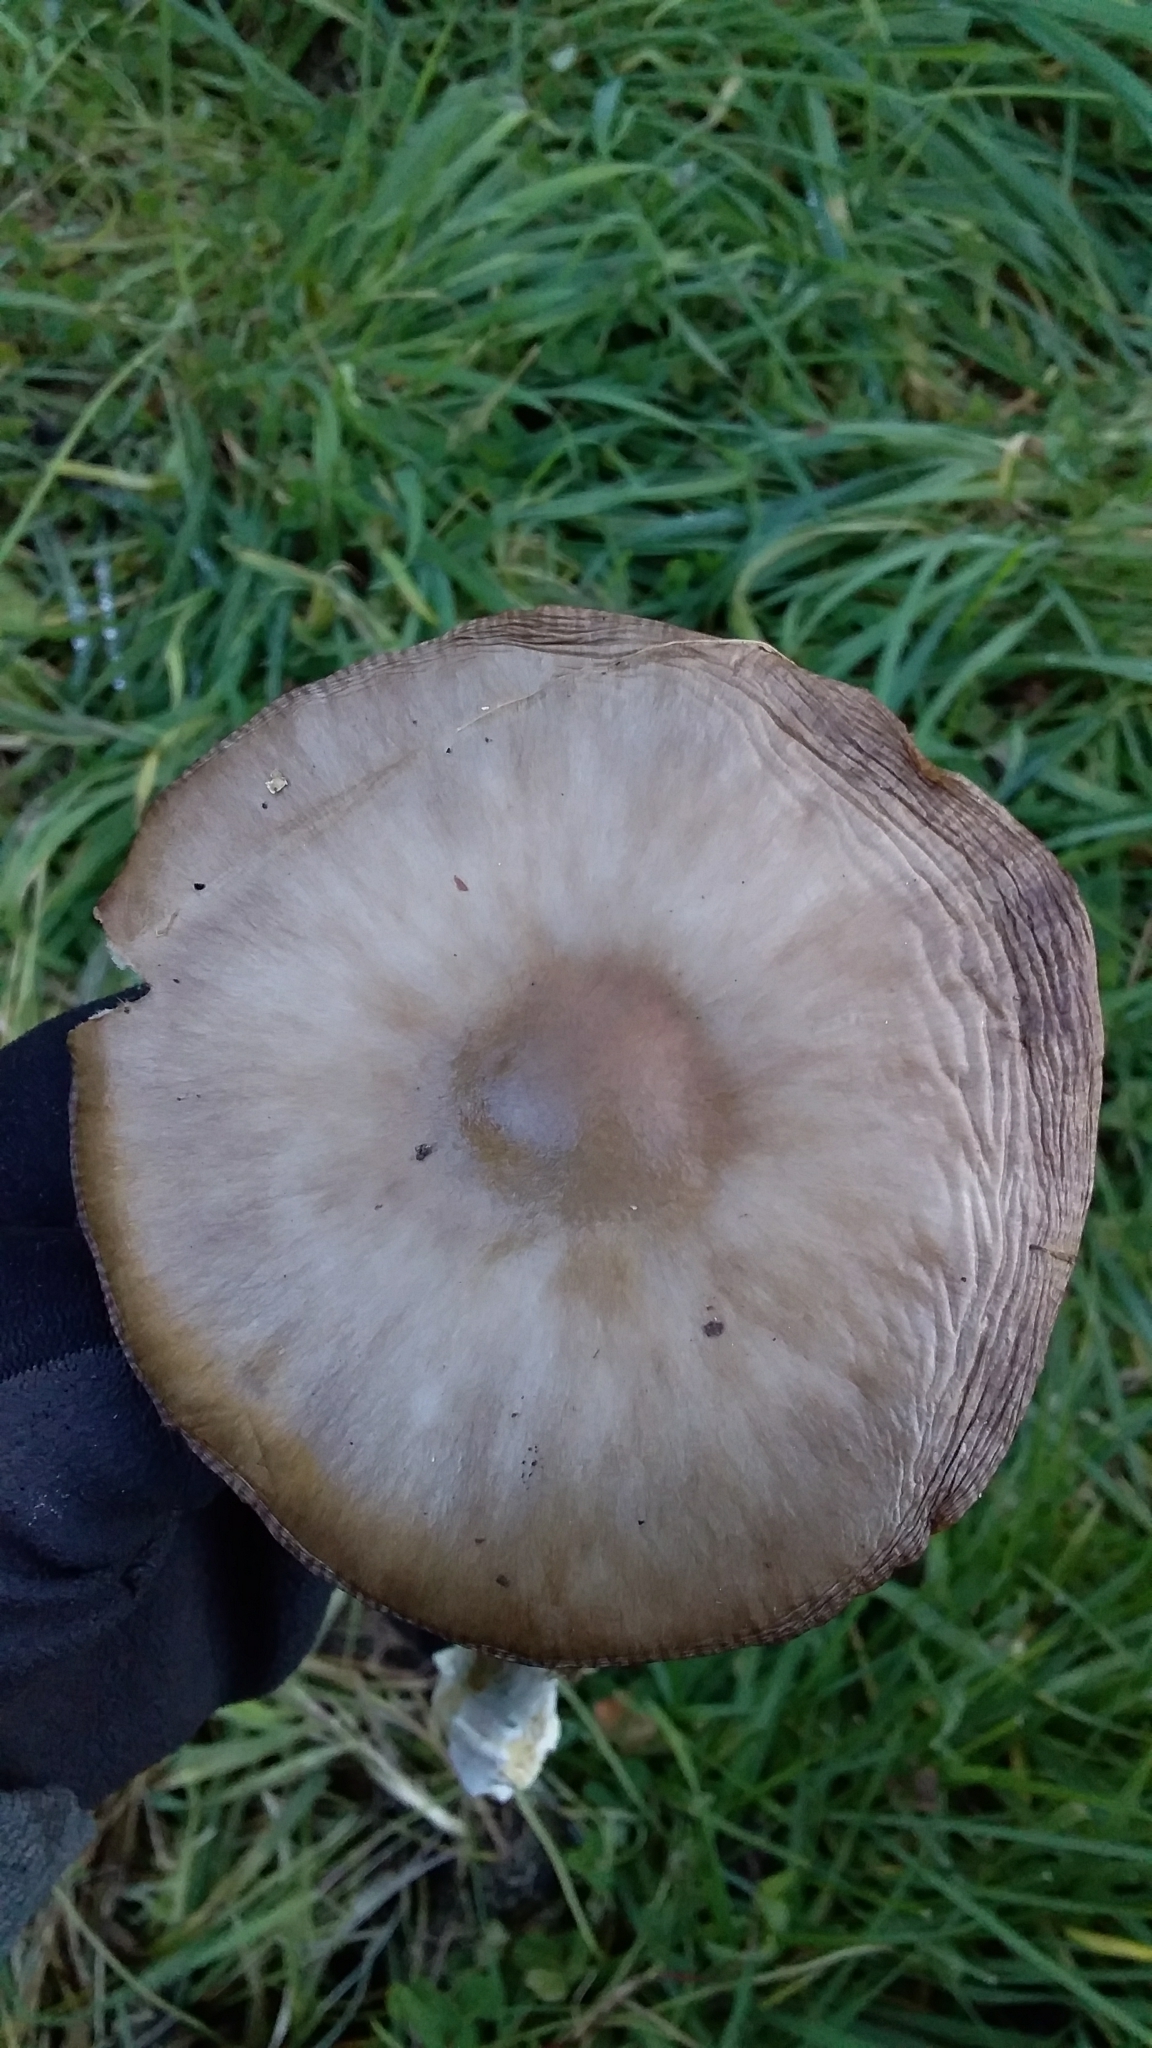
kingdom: Fungi
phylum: Basidiomycota
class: Agaricomycetes
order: Agaricales
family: Pluteaceae
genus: Volvopluteus
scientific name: Volvopluteus gloiocephalus
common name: Stubble rosegill
